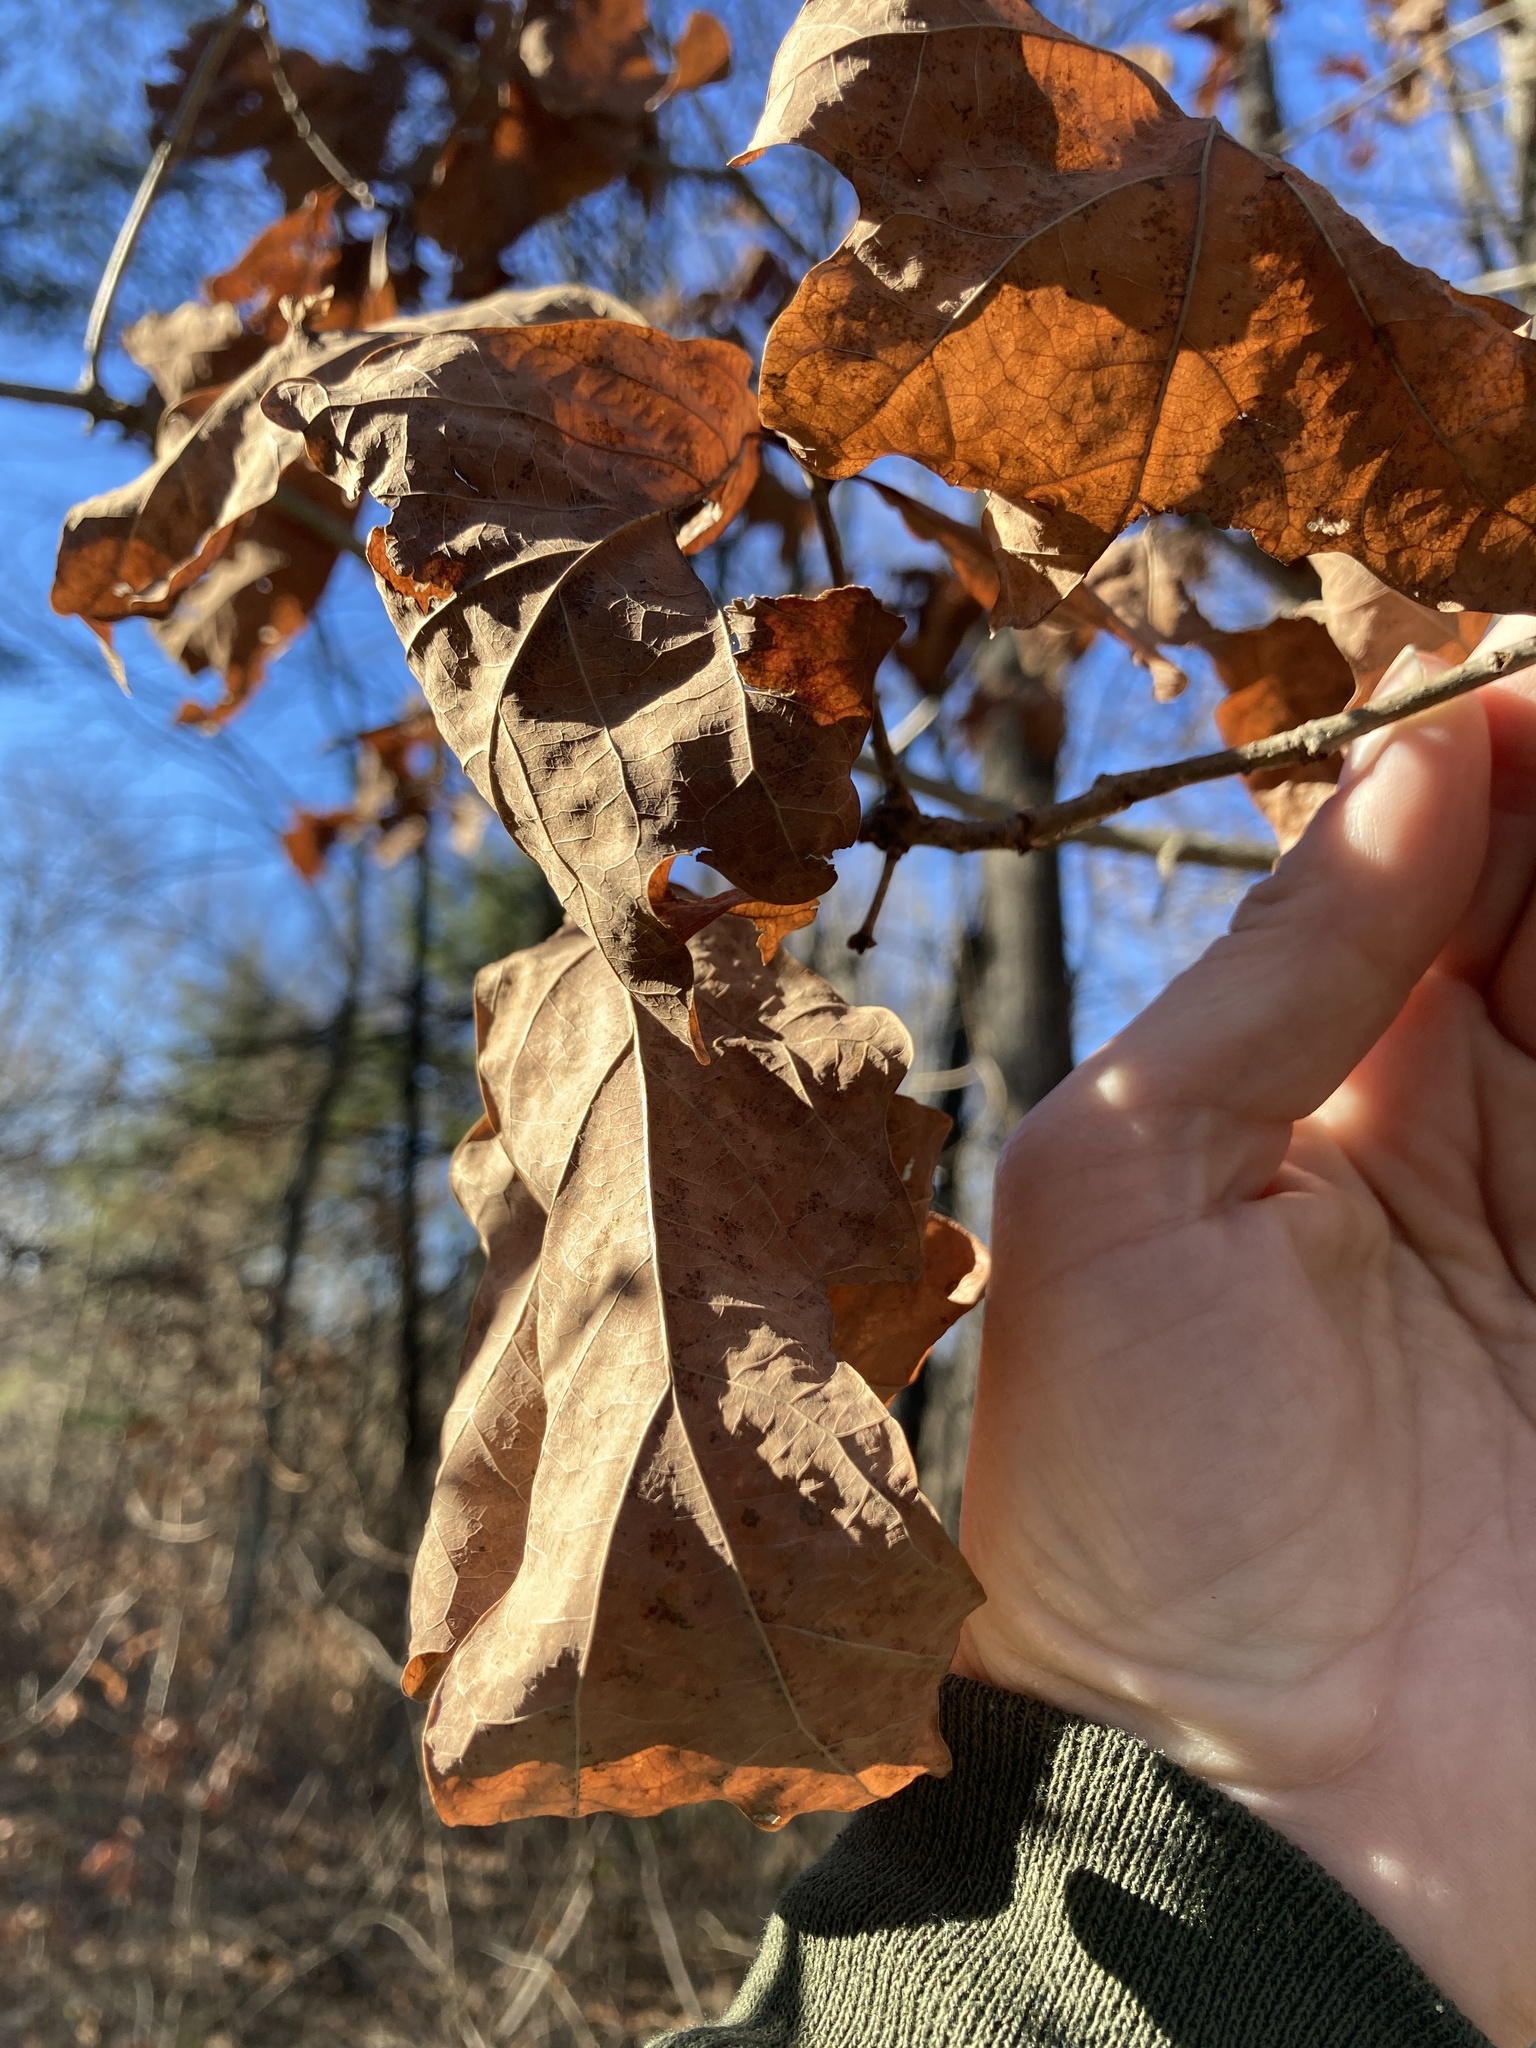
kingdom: Plantae
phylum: Tracheophyta
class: Magnoliopsida
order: Fagales
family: Fagaceae
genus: Quercus
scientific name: Quercus alba
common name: White oak
